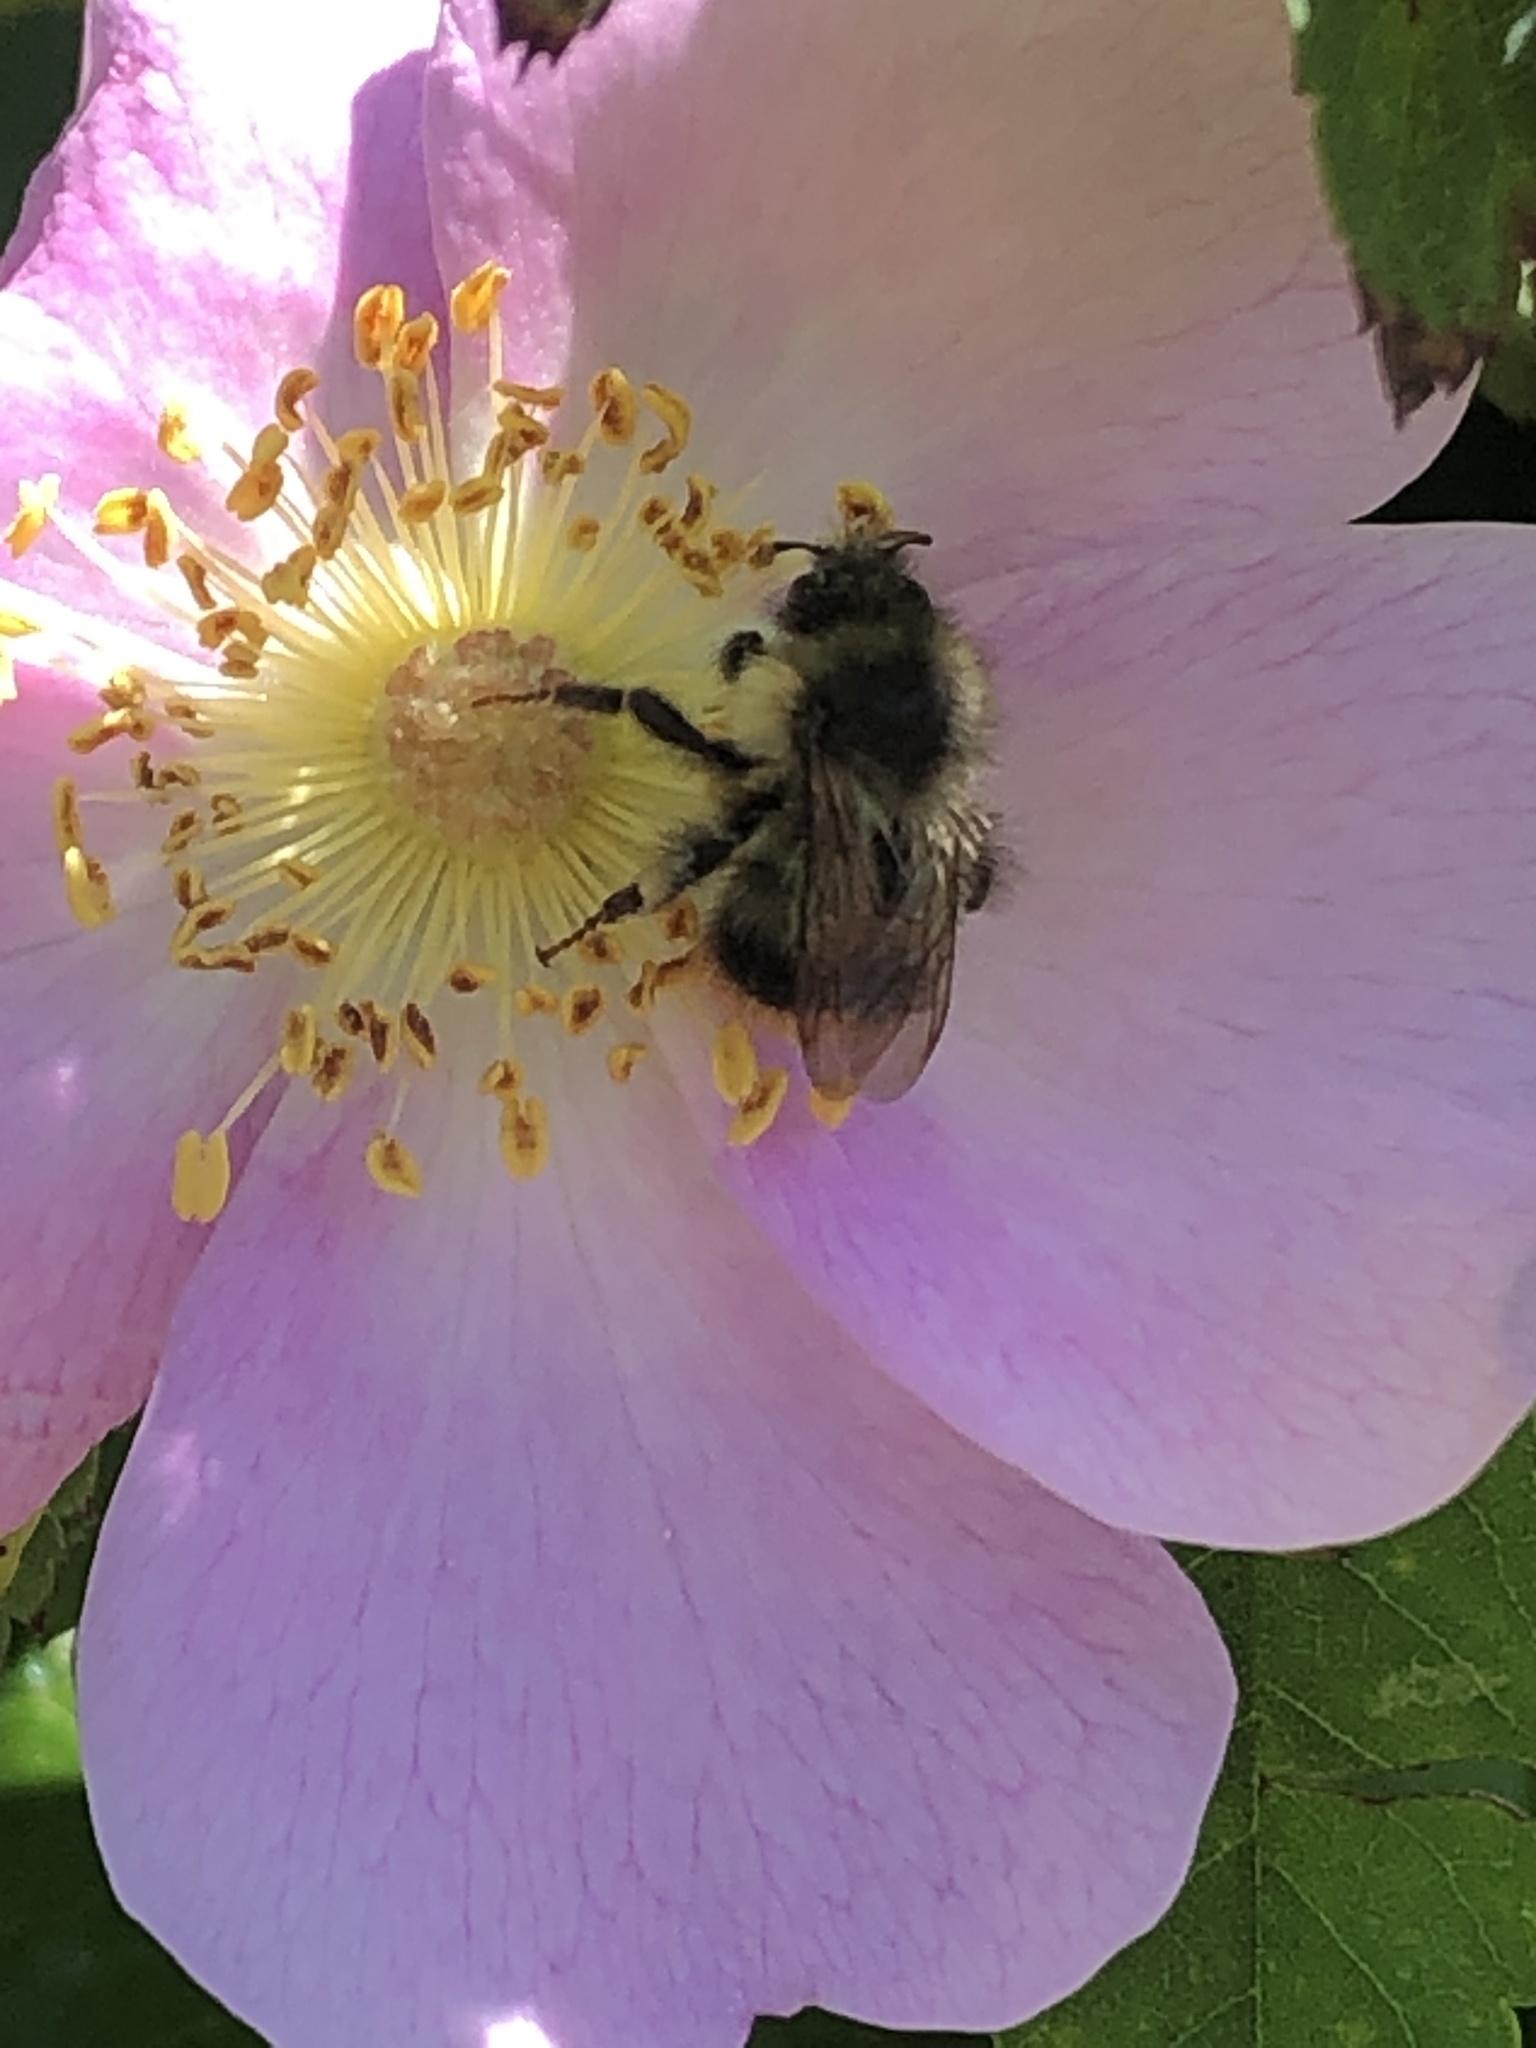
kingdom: Animalia
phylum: Arthropoda
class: Insecta
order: Hymenoptera
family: Apidae
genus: Bombus
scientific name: Bombus mixtus
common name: Fuzzy-horned bumble bee
